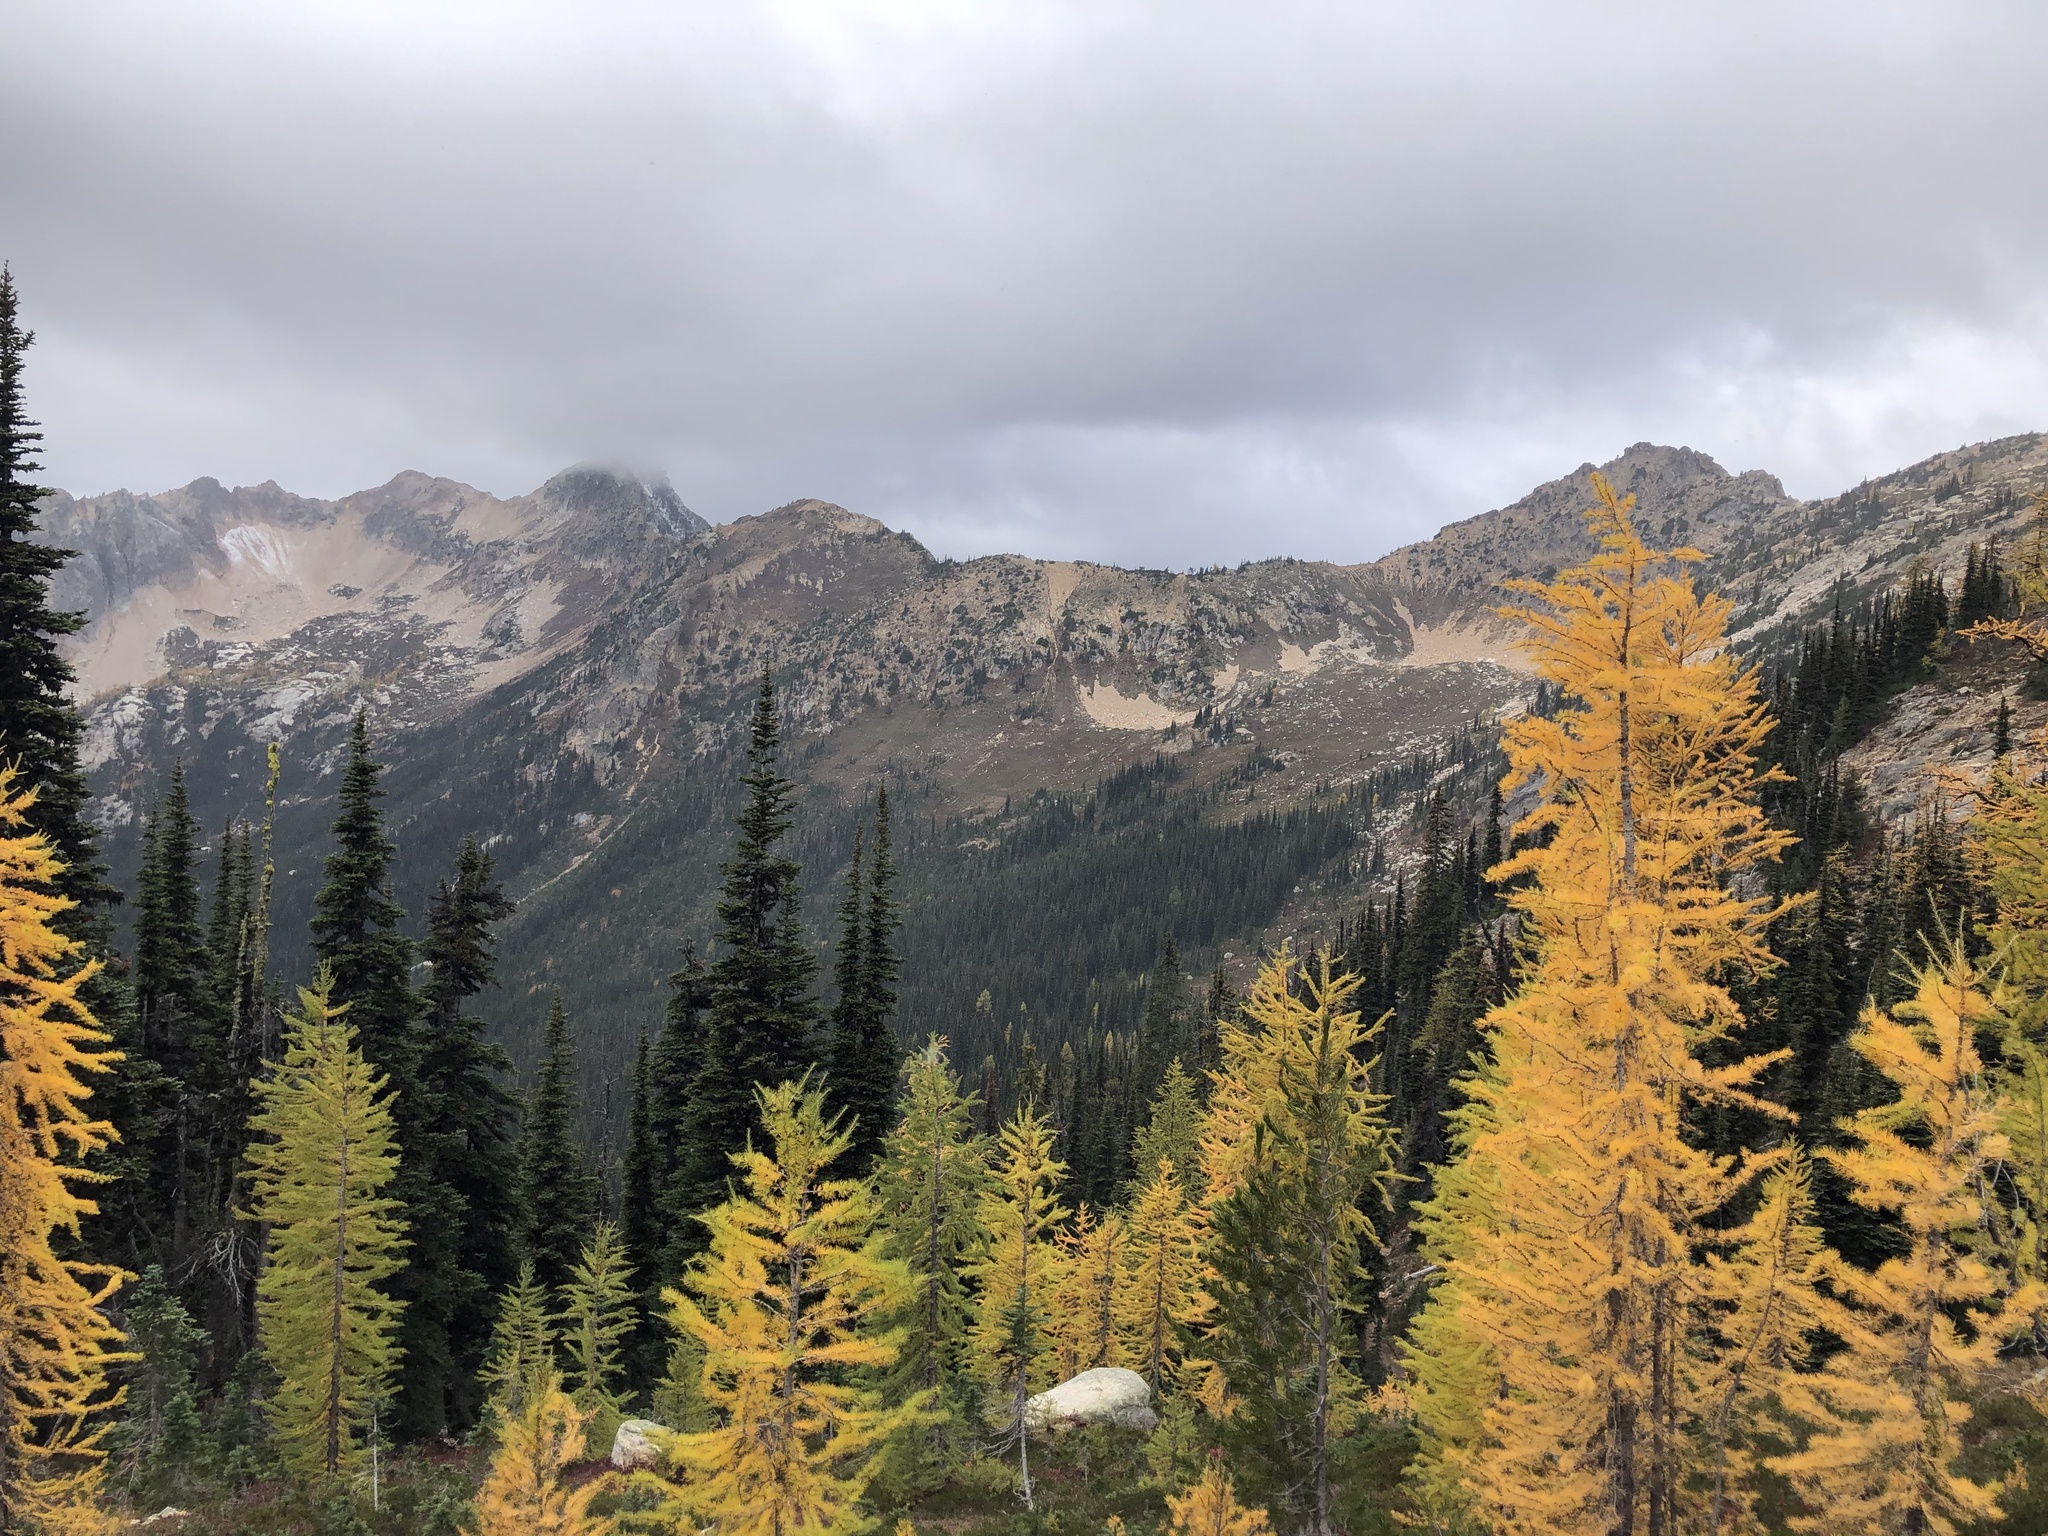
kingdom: Plantae
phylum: Tracheophyta
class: Pinopsida
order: Pinales
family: Pinaceae
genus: Pinus
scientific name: Pinus albicaulis
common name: Whitebark pine
